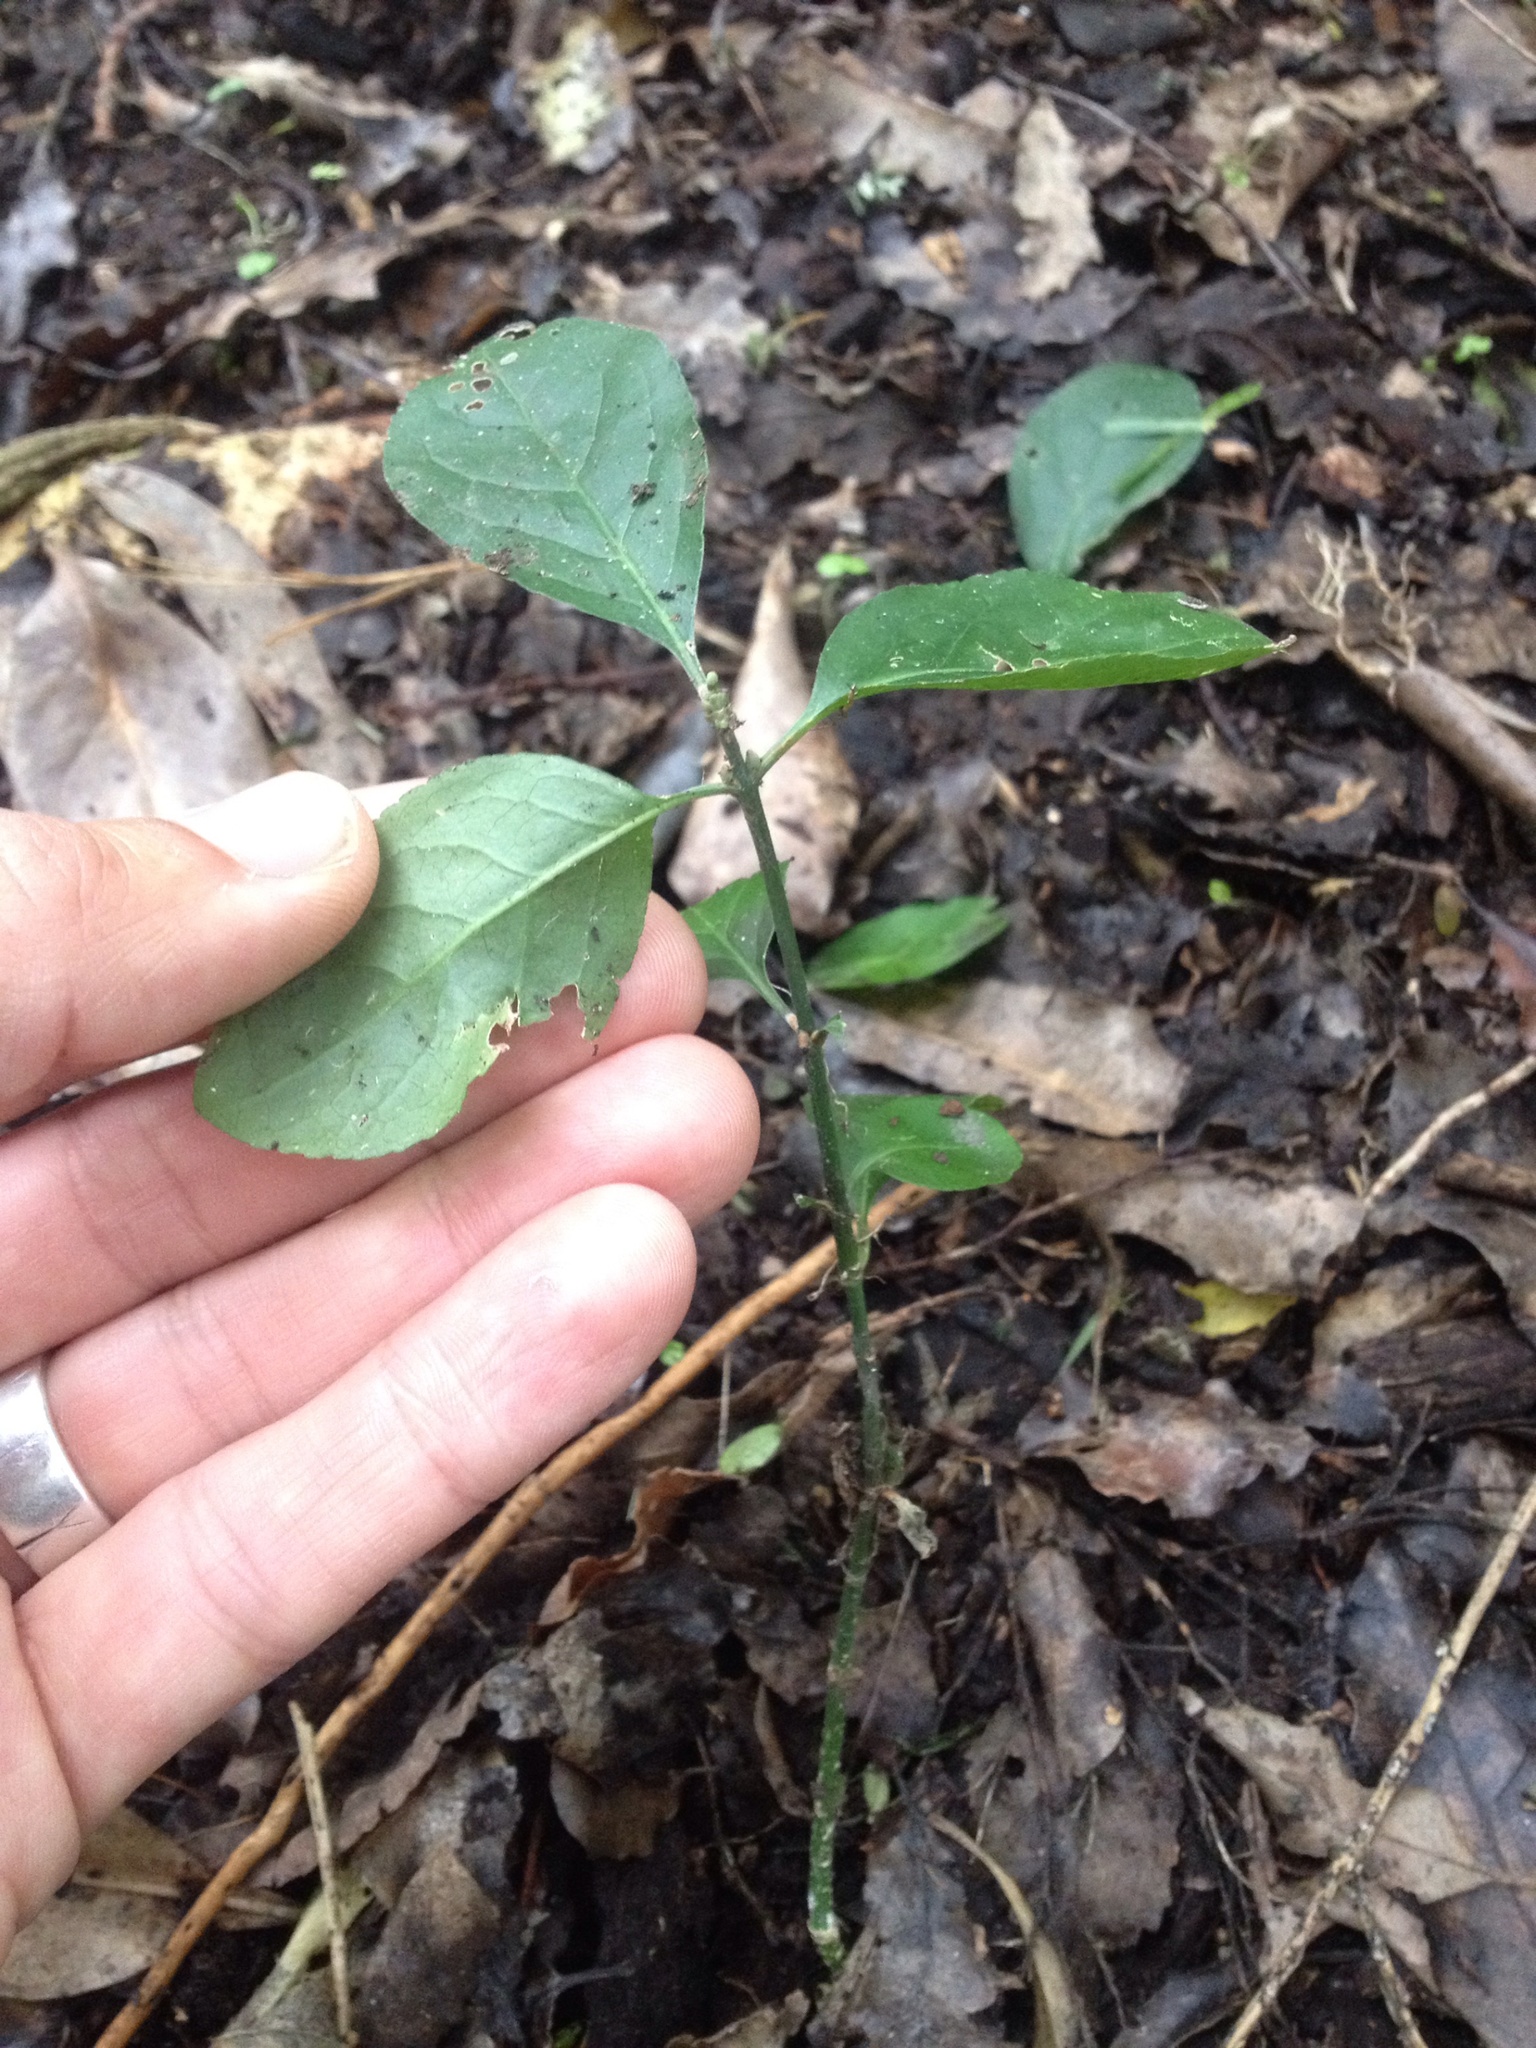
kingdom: Plantae
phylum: Tracheophyta
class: Magnoliopsida
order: Celastrales
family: Celastraceae
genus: Euonymus
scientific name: Euonymus europaeus
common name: Spindle
